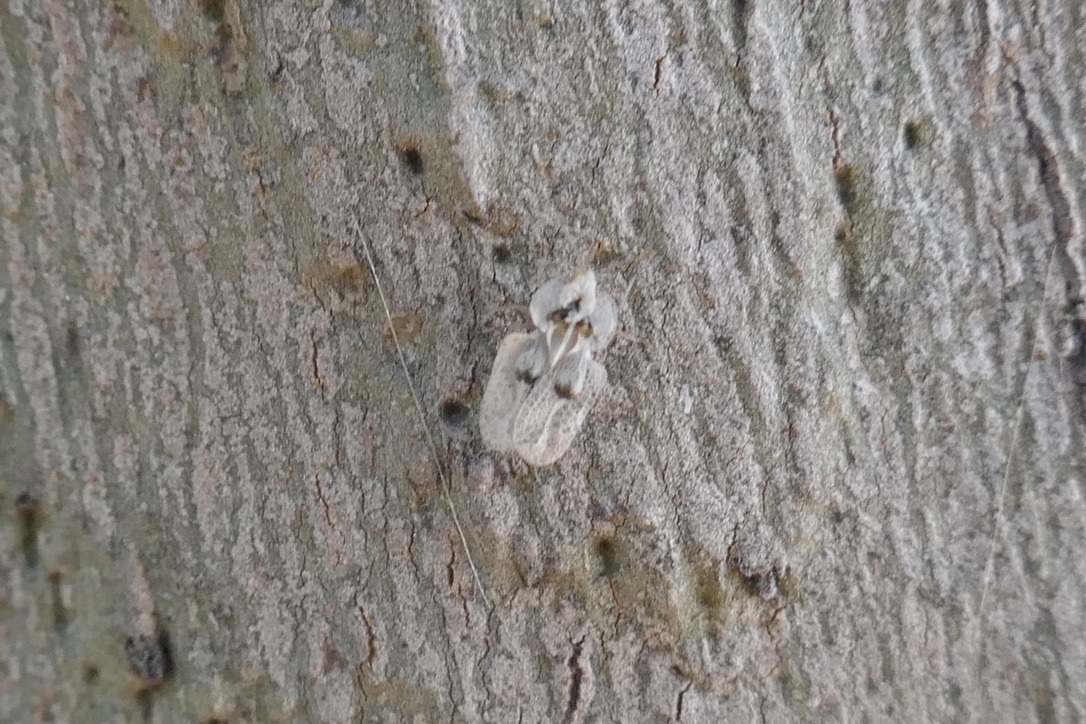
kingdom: Animalia
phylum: Arthropoda
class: Insecta
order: Hemiptera
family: Tingidae
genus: Corythucha
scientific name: Corythucha ciliata
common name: Sycamore lace bug
